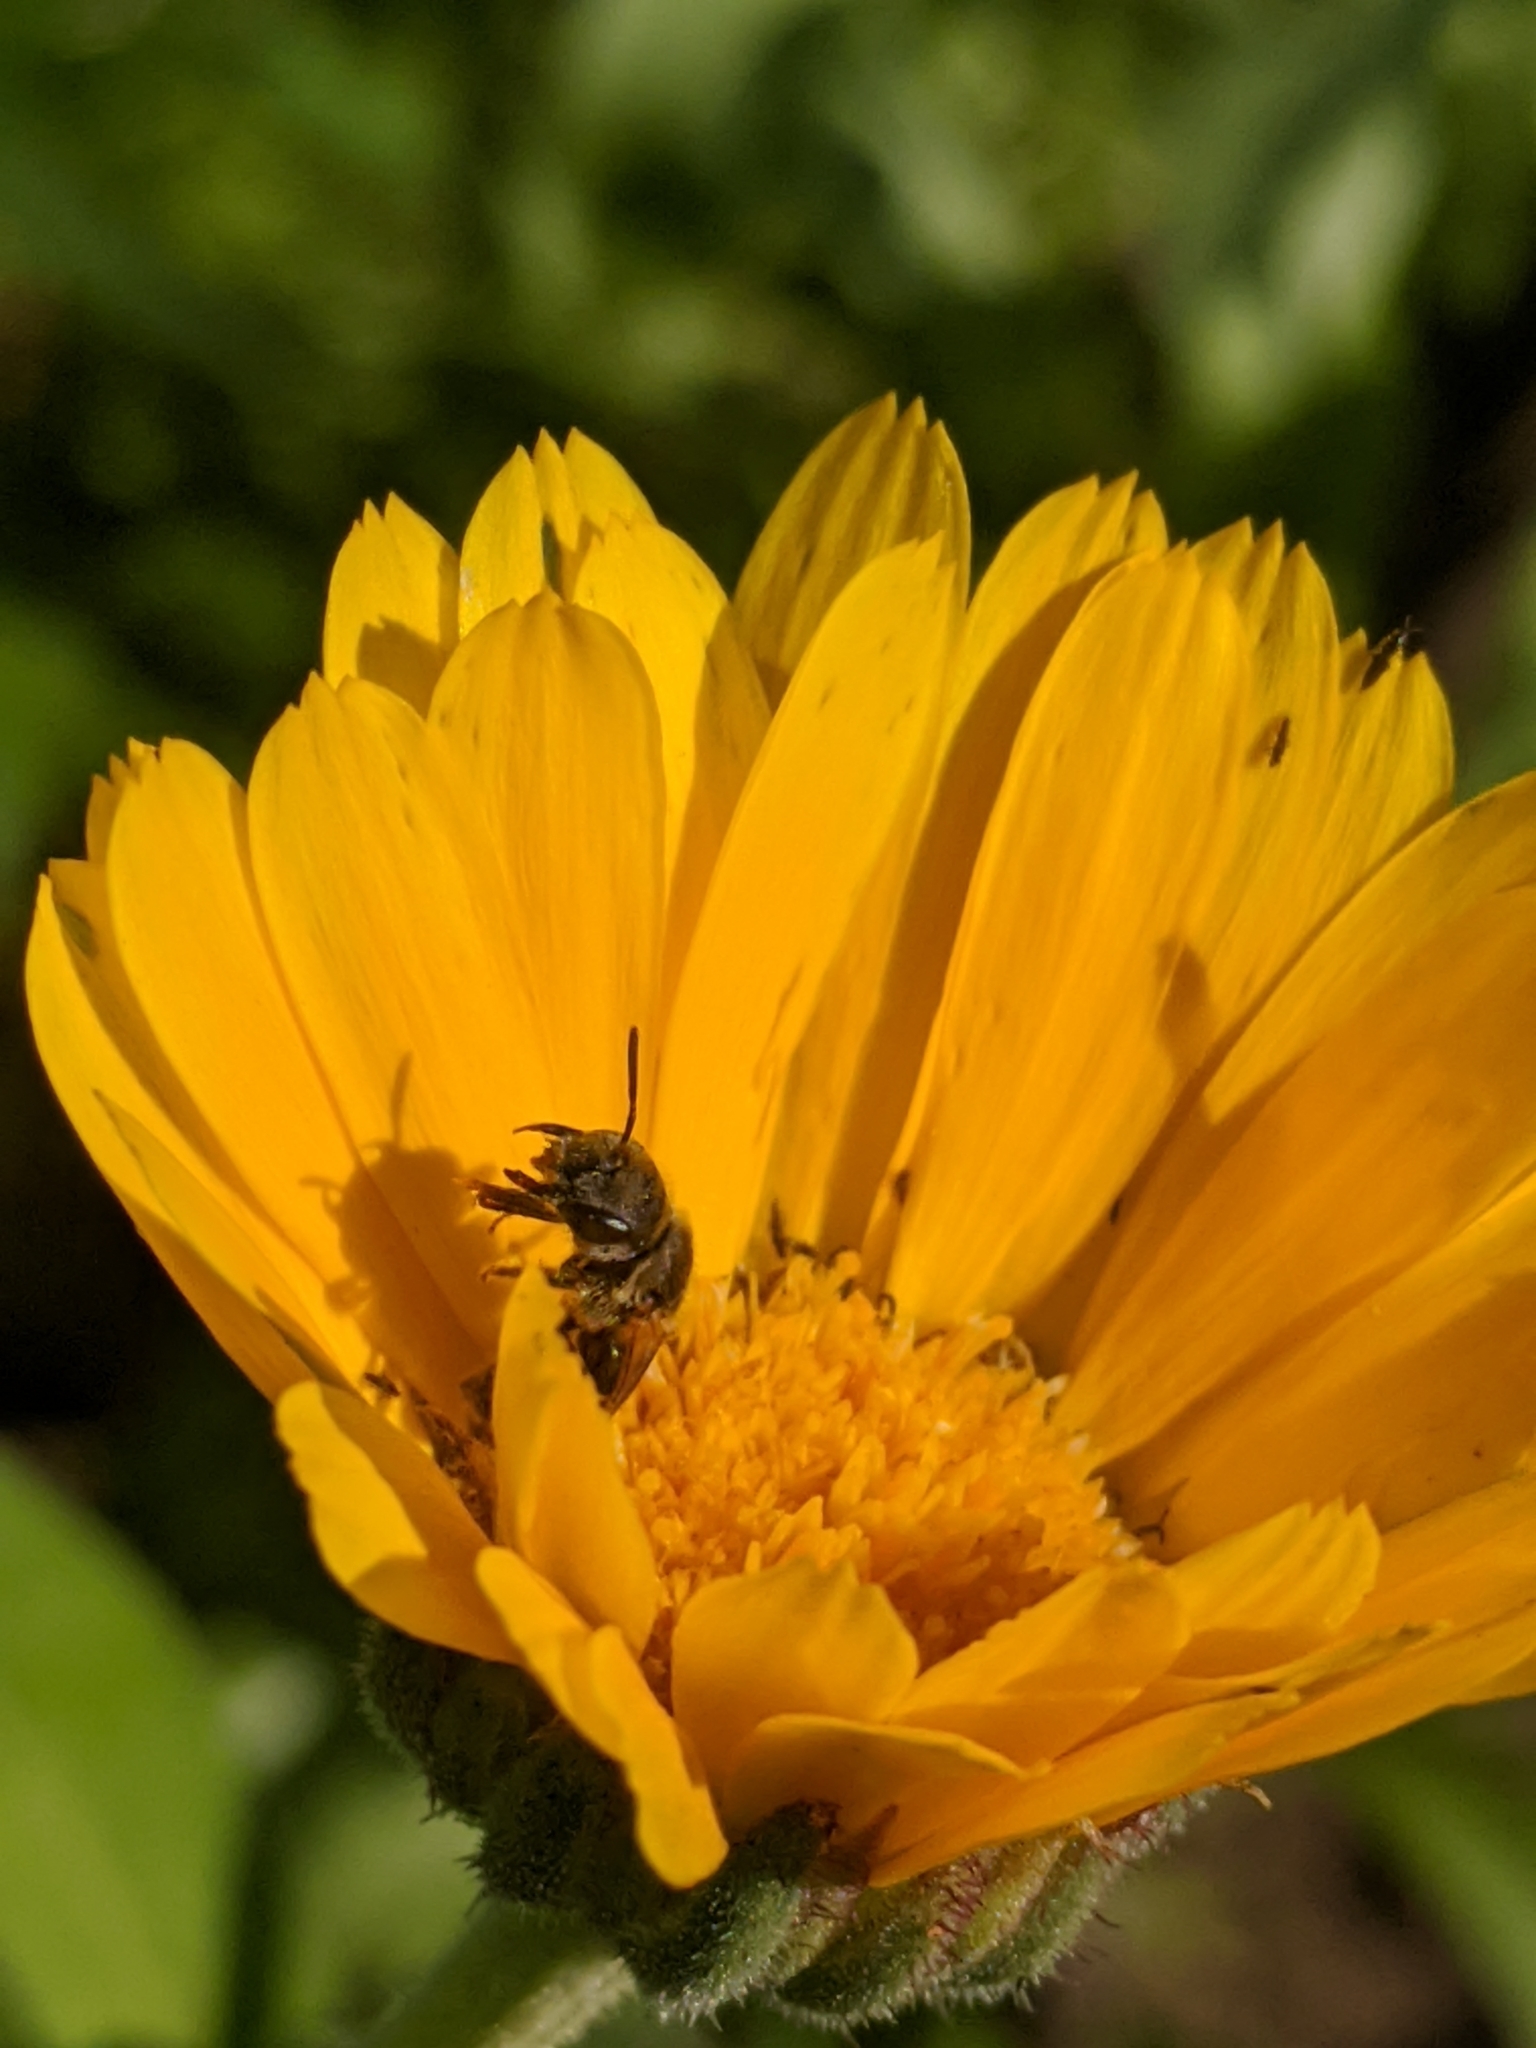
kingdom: Animalia
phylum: Arthropoda
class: Insecta
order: Hymenoptera
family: Halictidae
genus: Halictus
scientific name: Halictus ligatus
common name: Ligated furrow bee
